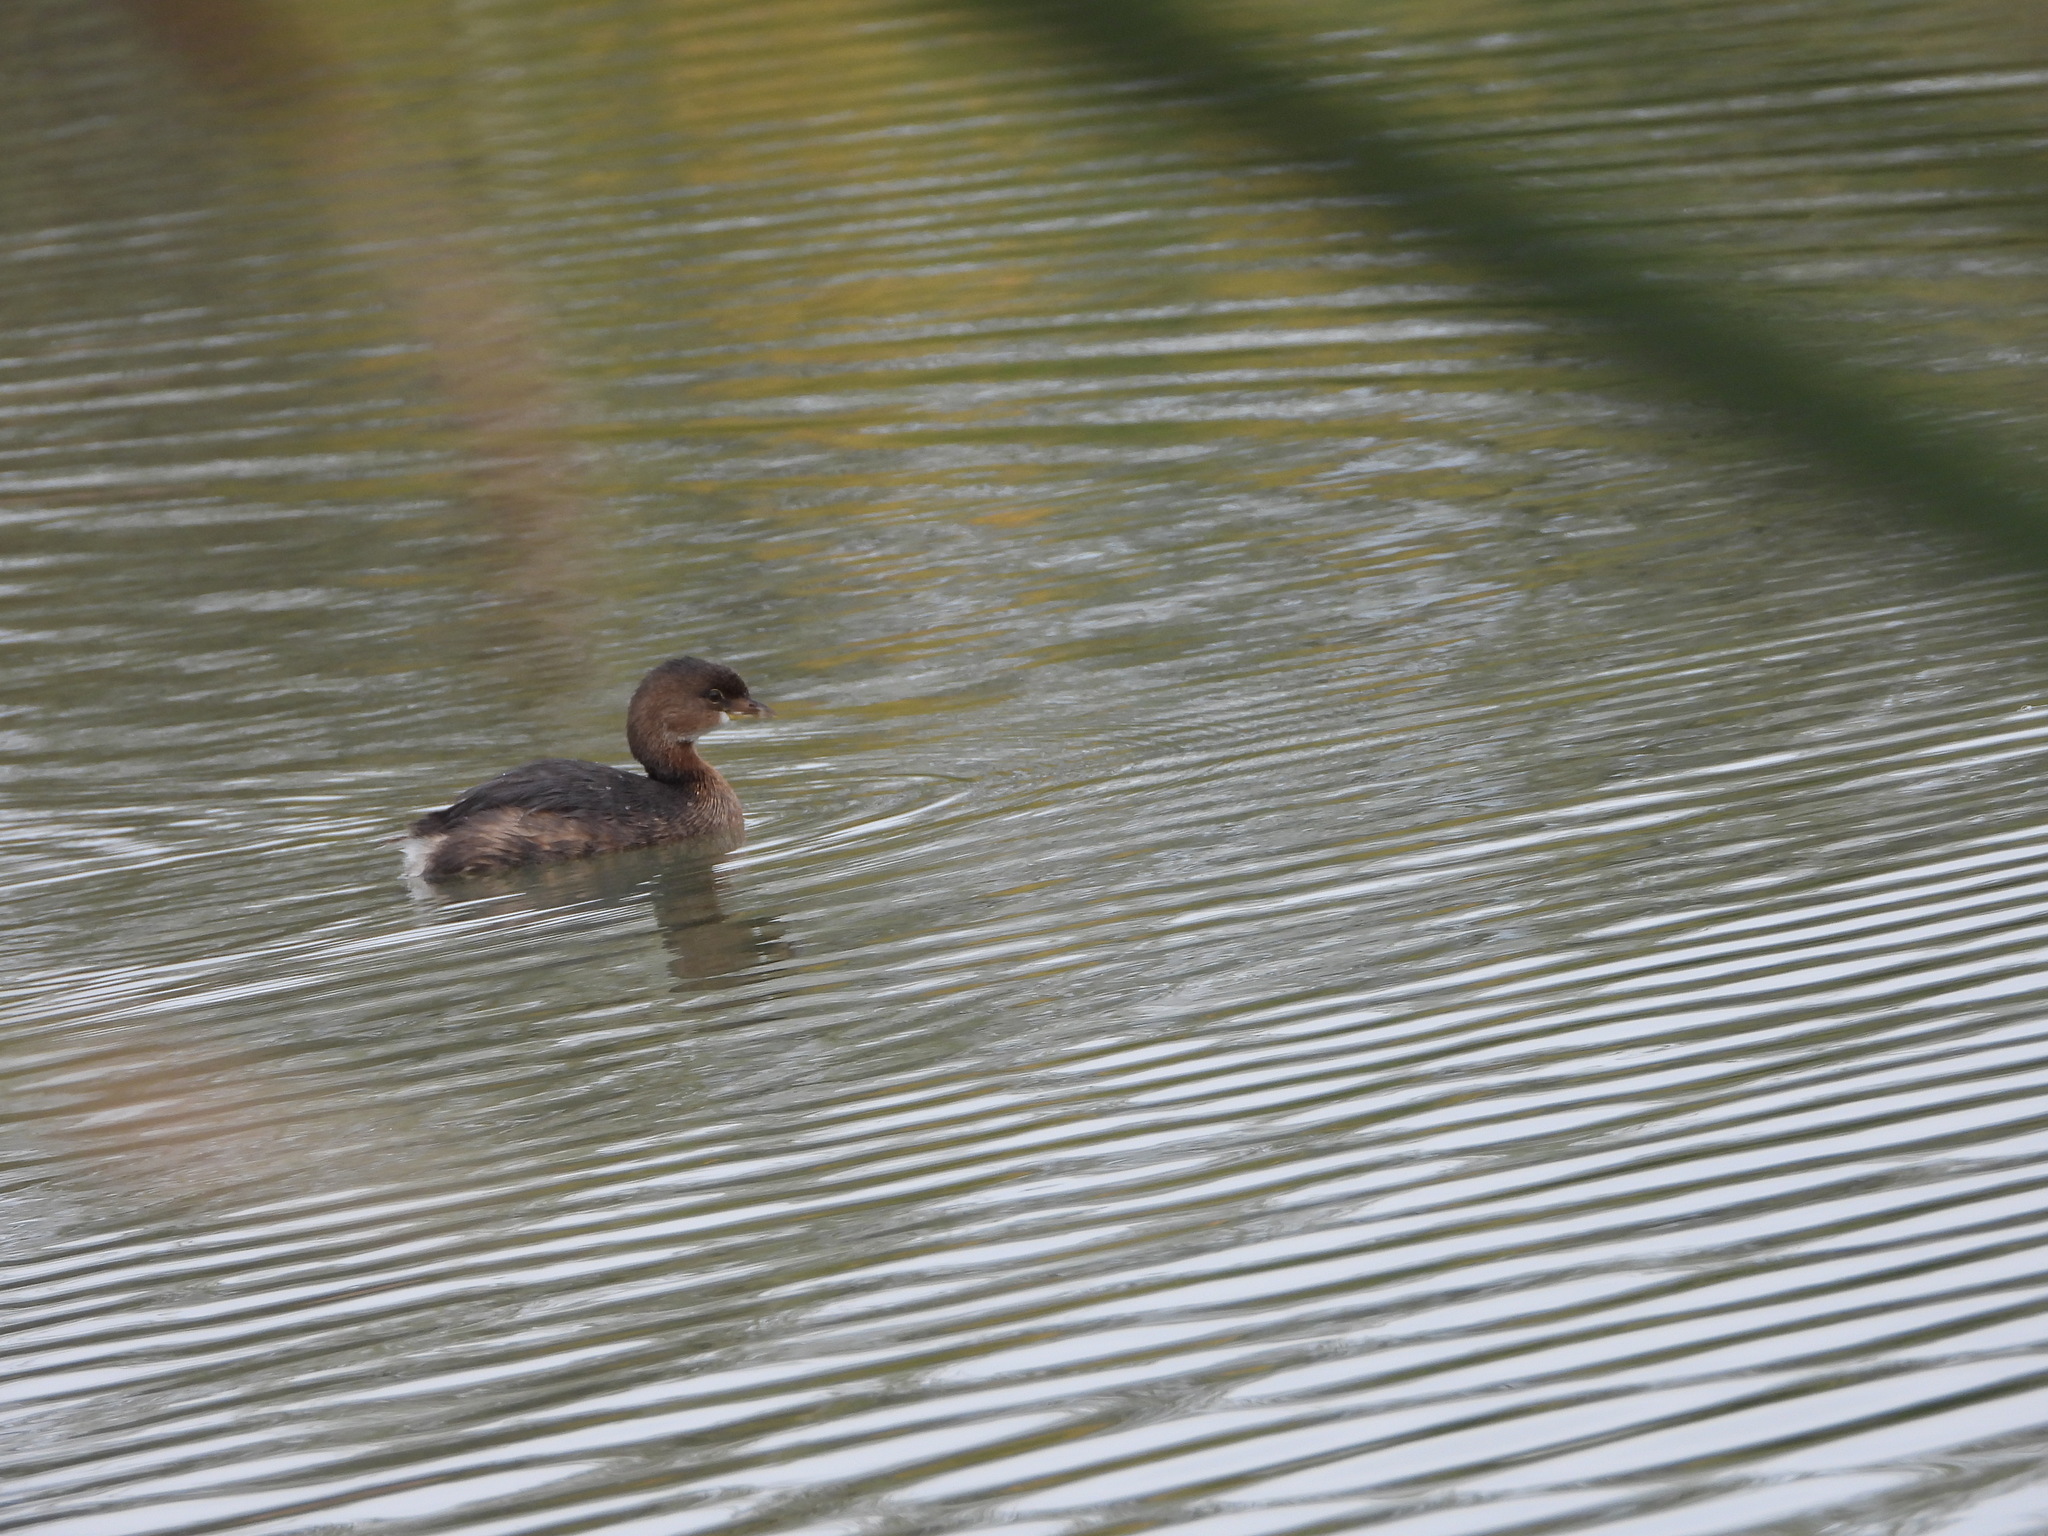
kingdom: Animalia
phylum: Chordata
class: Aves
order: Podicipediformes
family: Podicipedidae
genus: Podilymbus
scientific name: Podilymbus podiceps
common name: Pied-billed grebe
